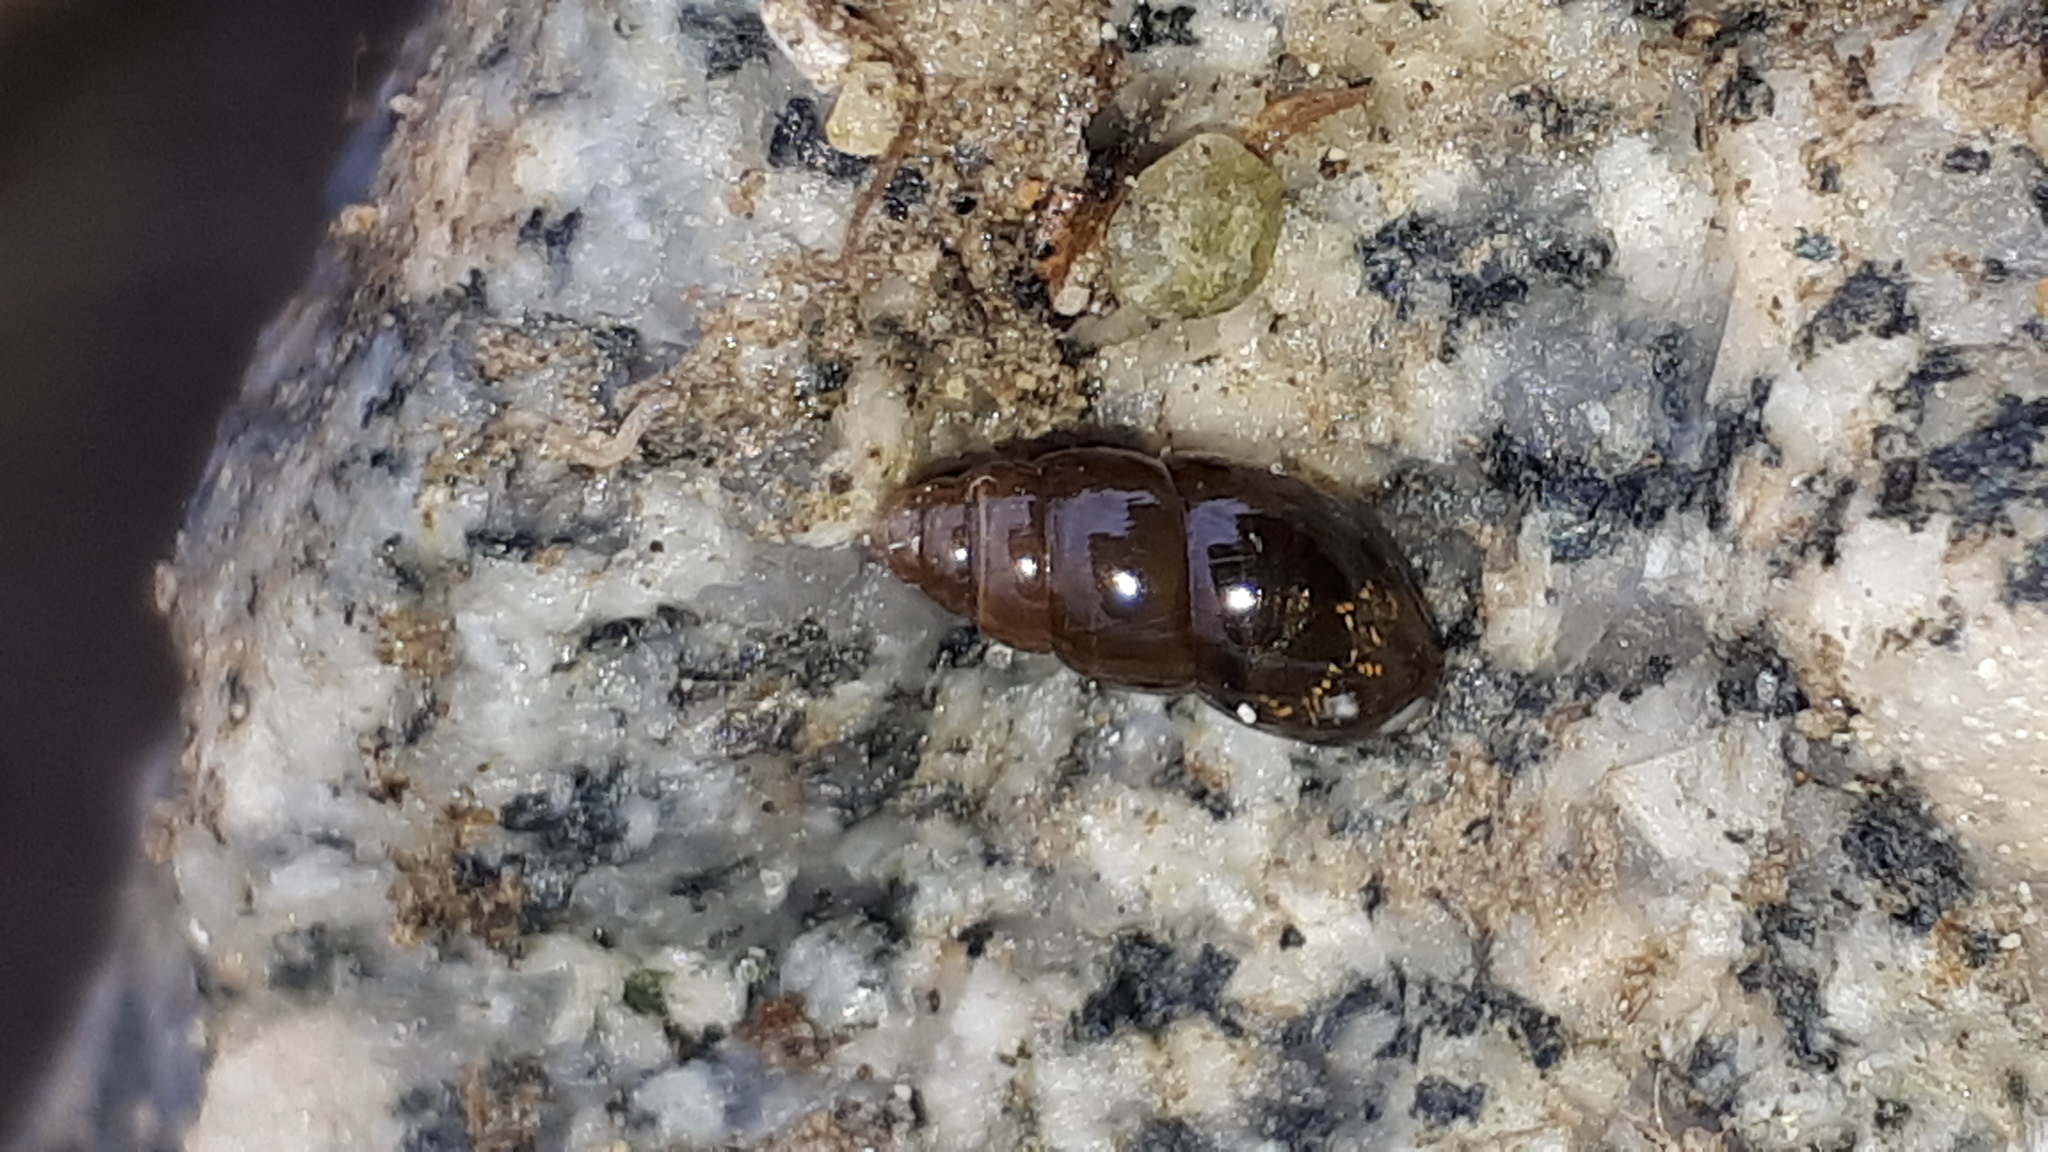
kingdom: Animalia
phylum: Mollusca
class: Gastropoda
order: Stylommatophora
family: Cochlicopidae
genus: Cochlicopa
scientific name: Cochlicopa lubrica
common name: Glossy pillar snail
